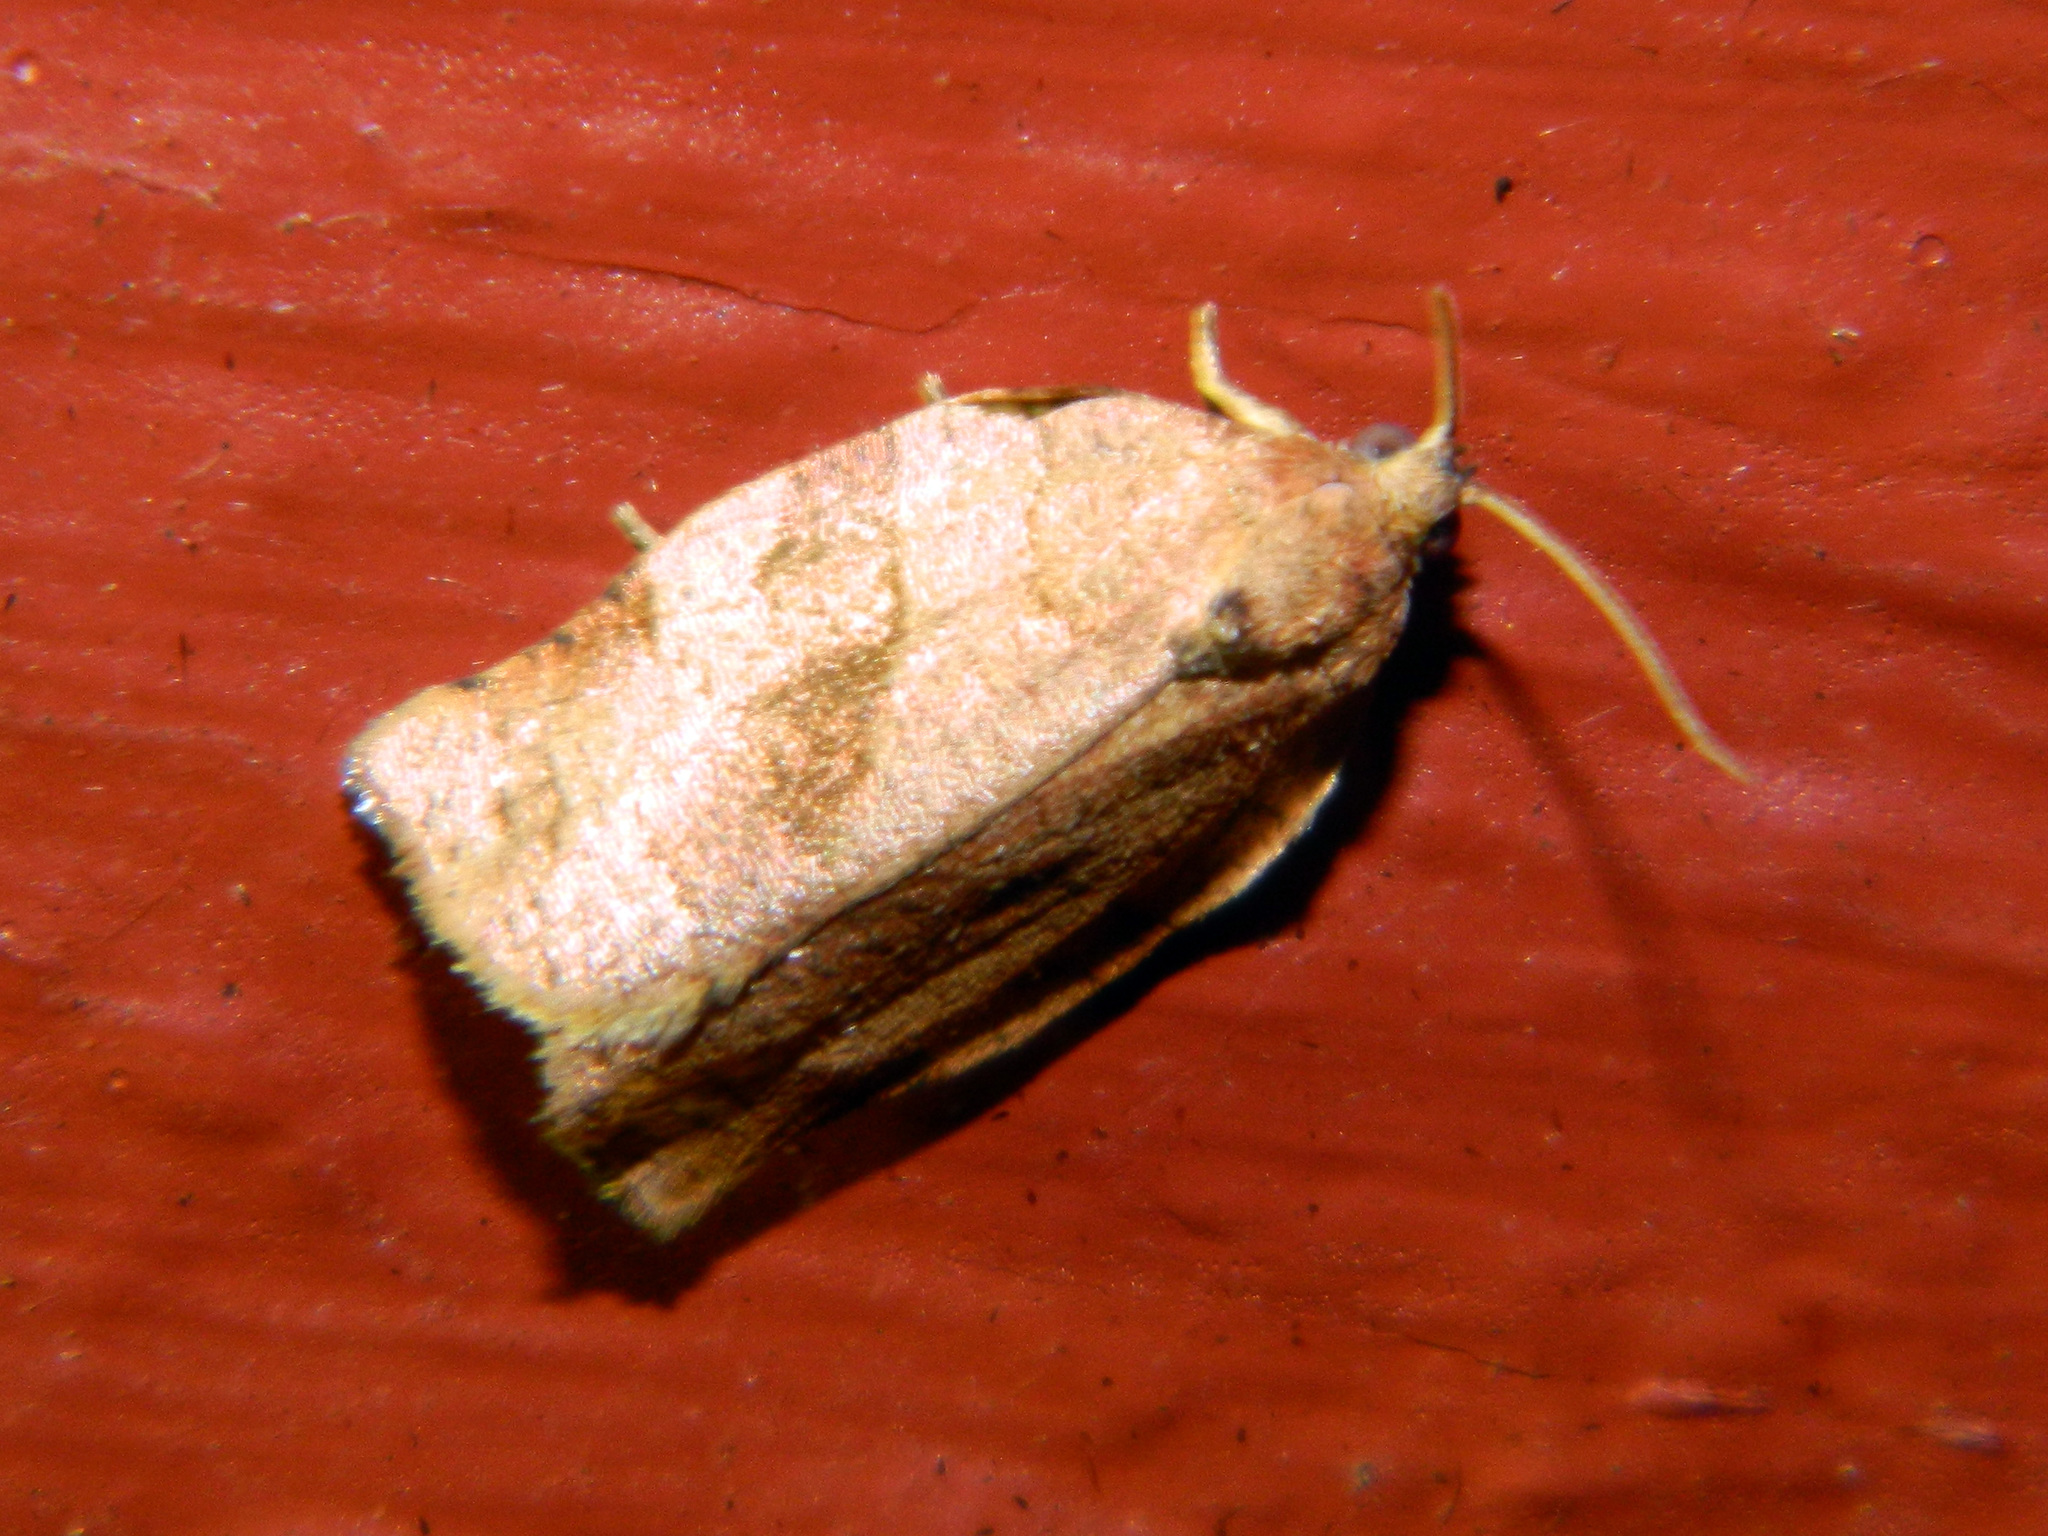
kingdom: Animalia
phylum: Arthropoda
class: Insecta
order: Lepidoptera
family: Tortricidae
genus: Choristoneura
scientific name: Choristoneura rosaceana
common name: Oblique-banded leafroller moth
